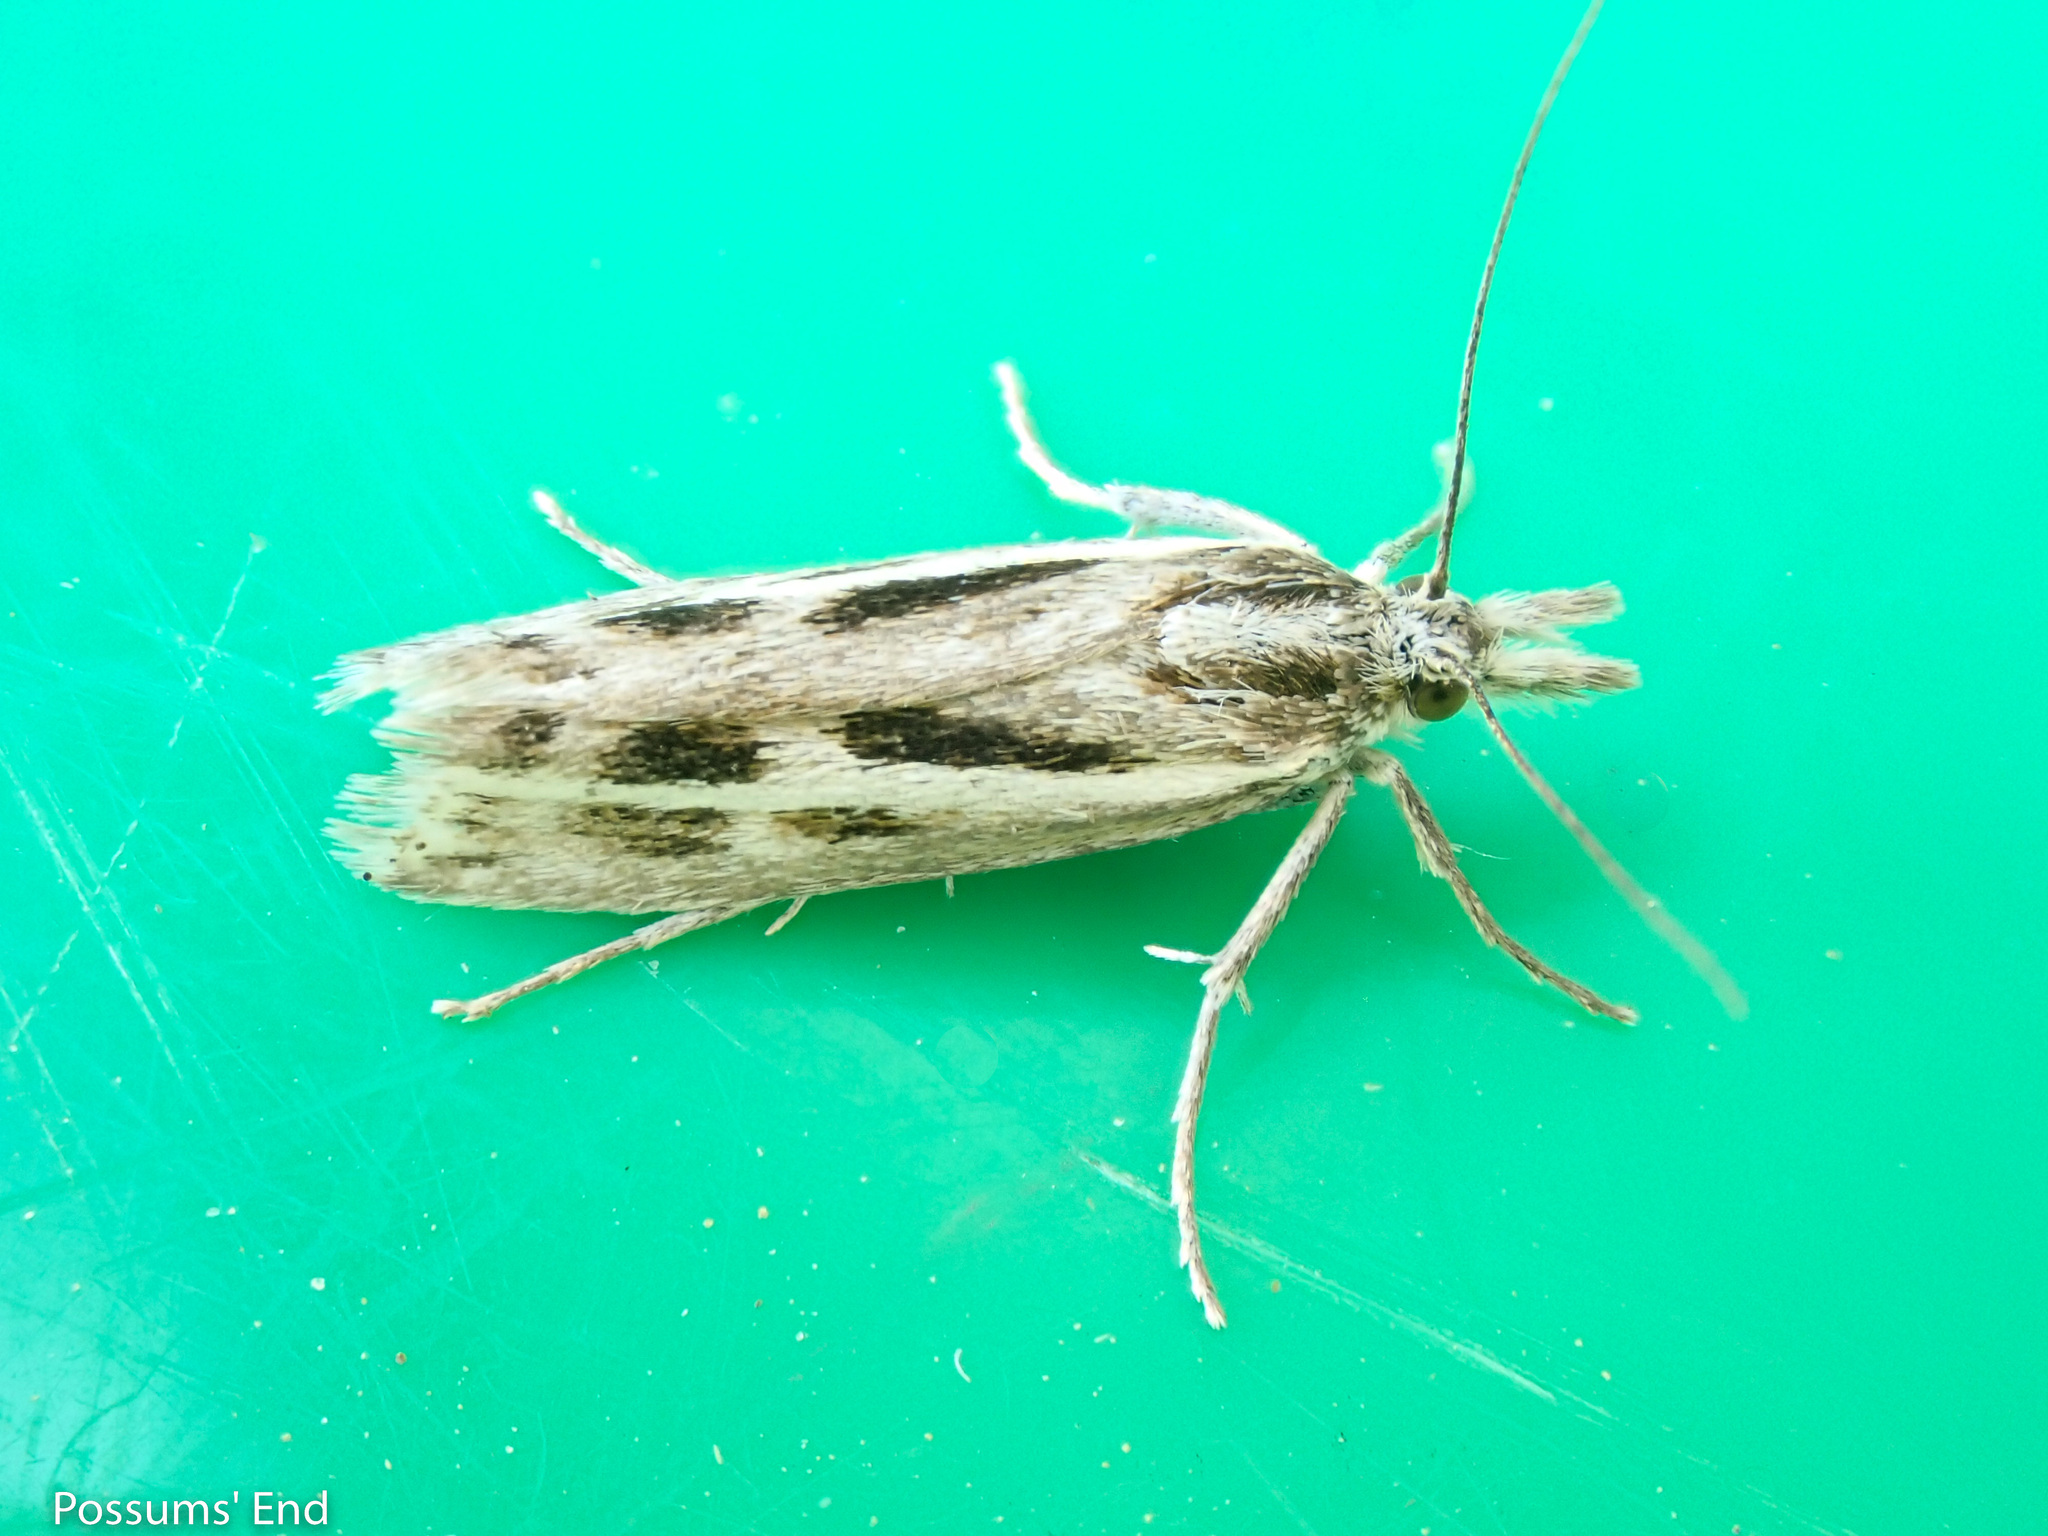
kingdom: Animalia
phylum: Arthropoda
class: Insecta
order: Lepidoptera
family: Crambidae
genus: Orocrambus
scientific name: Orocrambus corruptus
